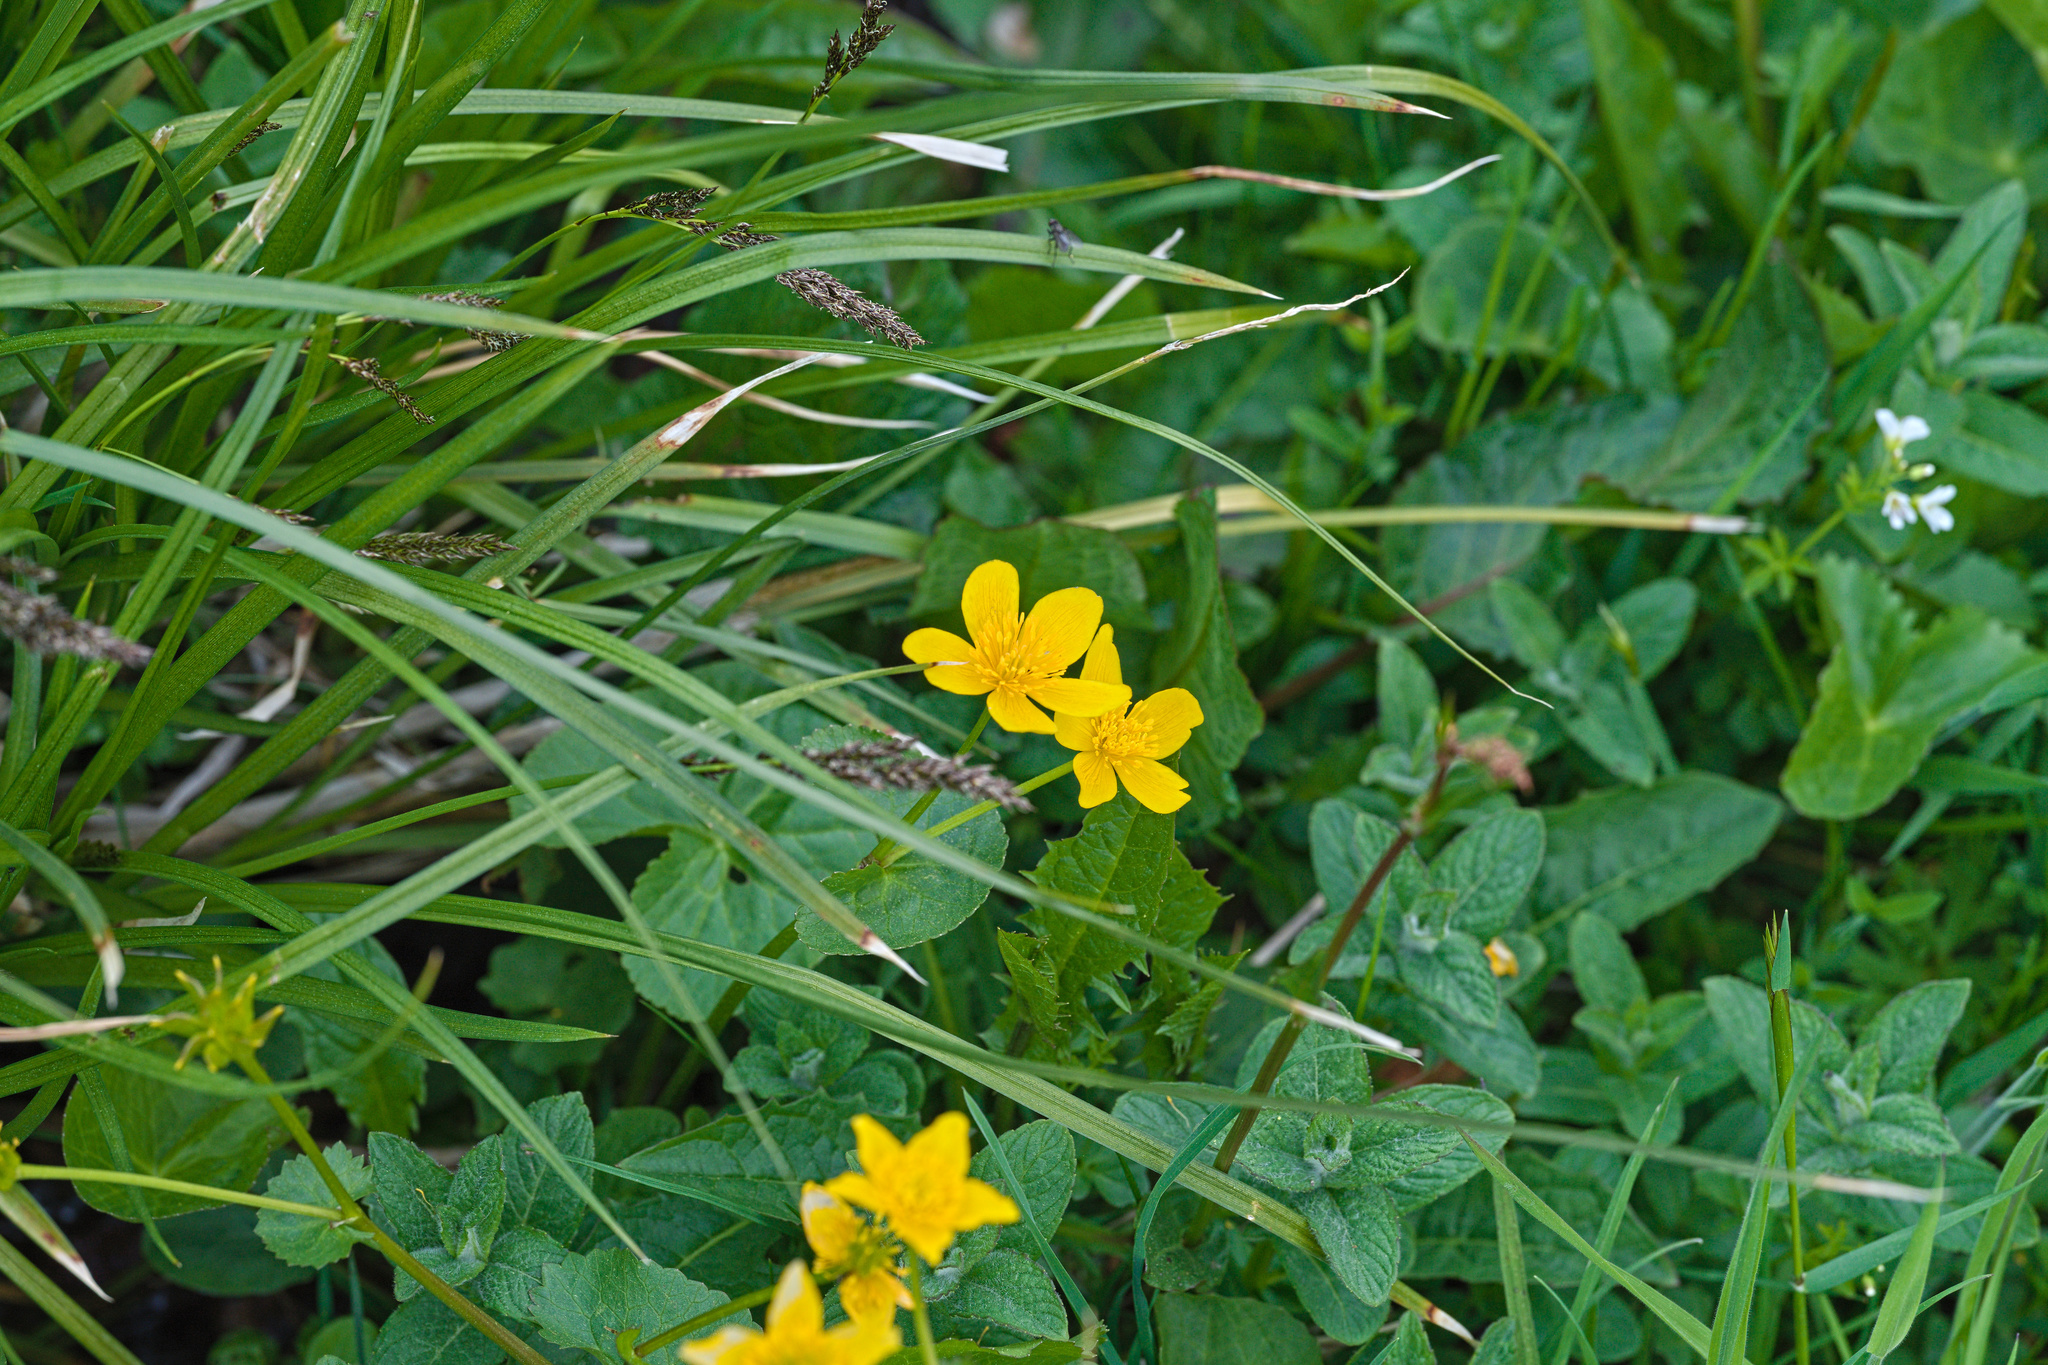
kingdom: Plantae
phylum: Tracheophyta
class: Magnoliopsida
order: Ranunculales
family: Ranunculaceae
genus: Caltha
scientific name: Caltha palustris
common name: Marsh marigold
